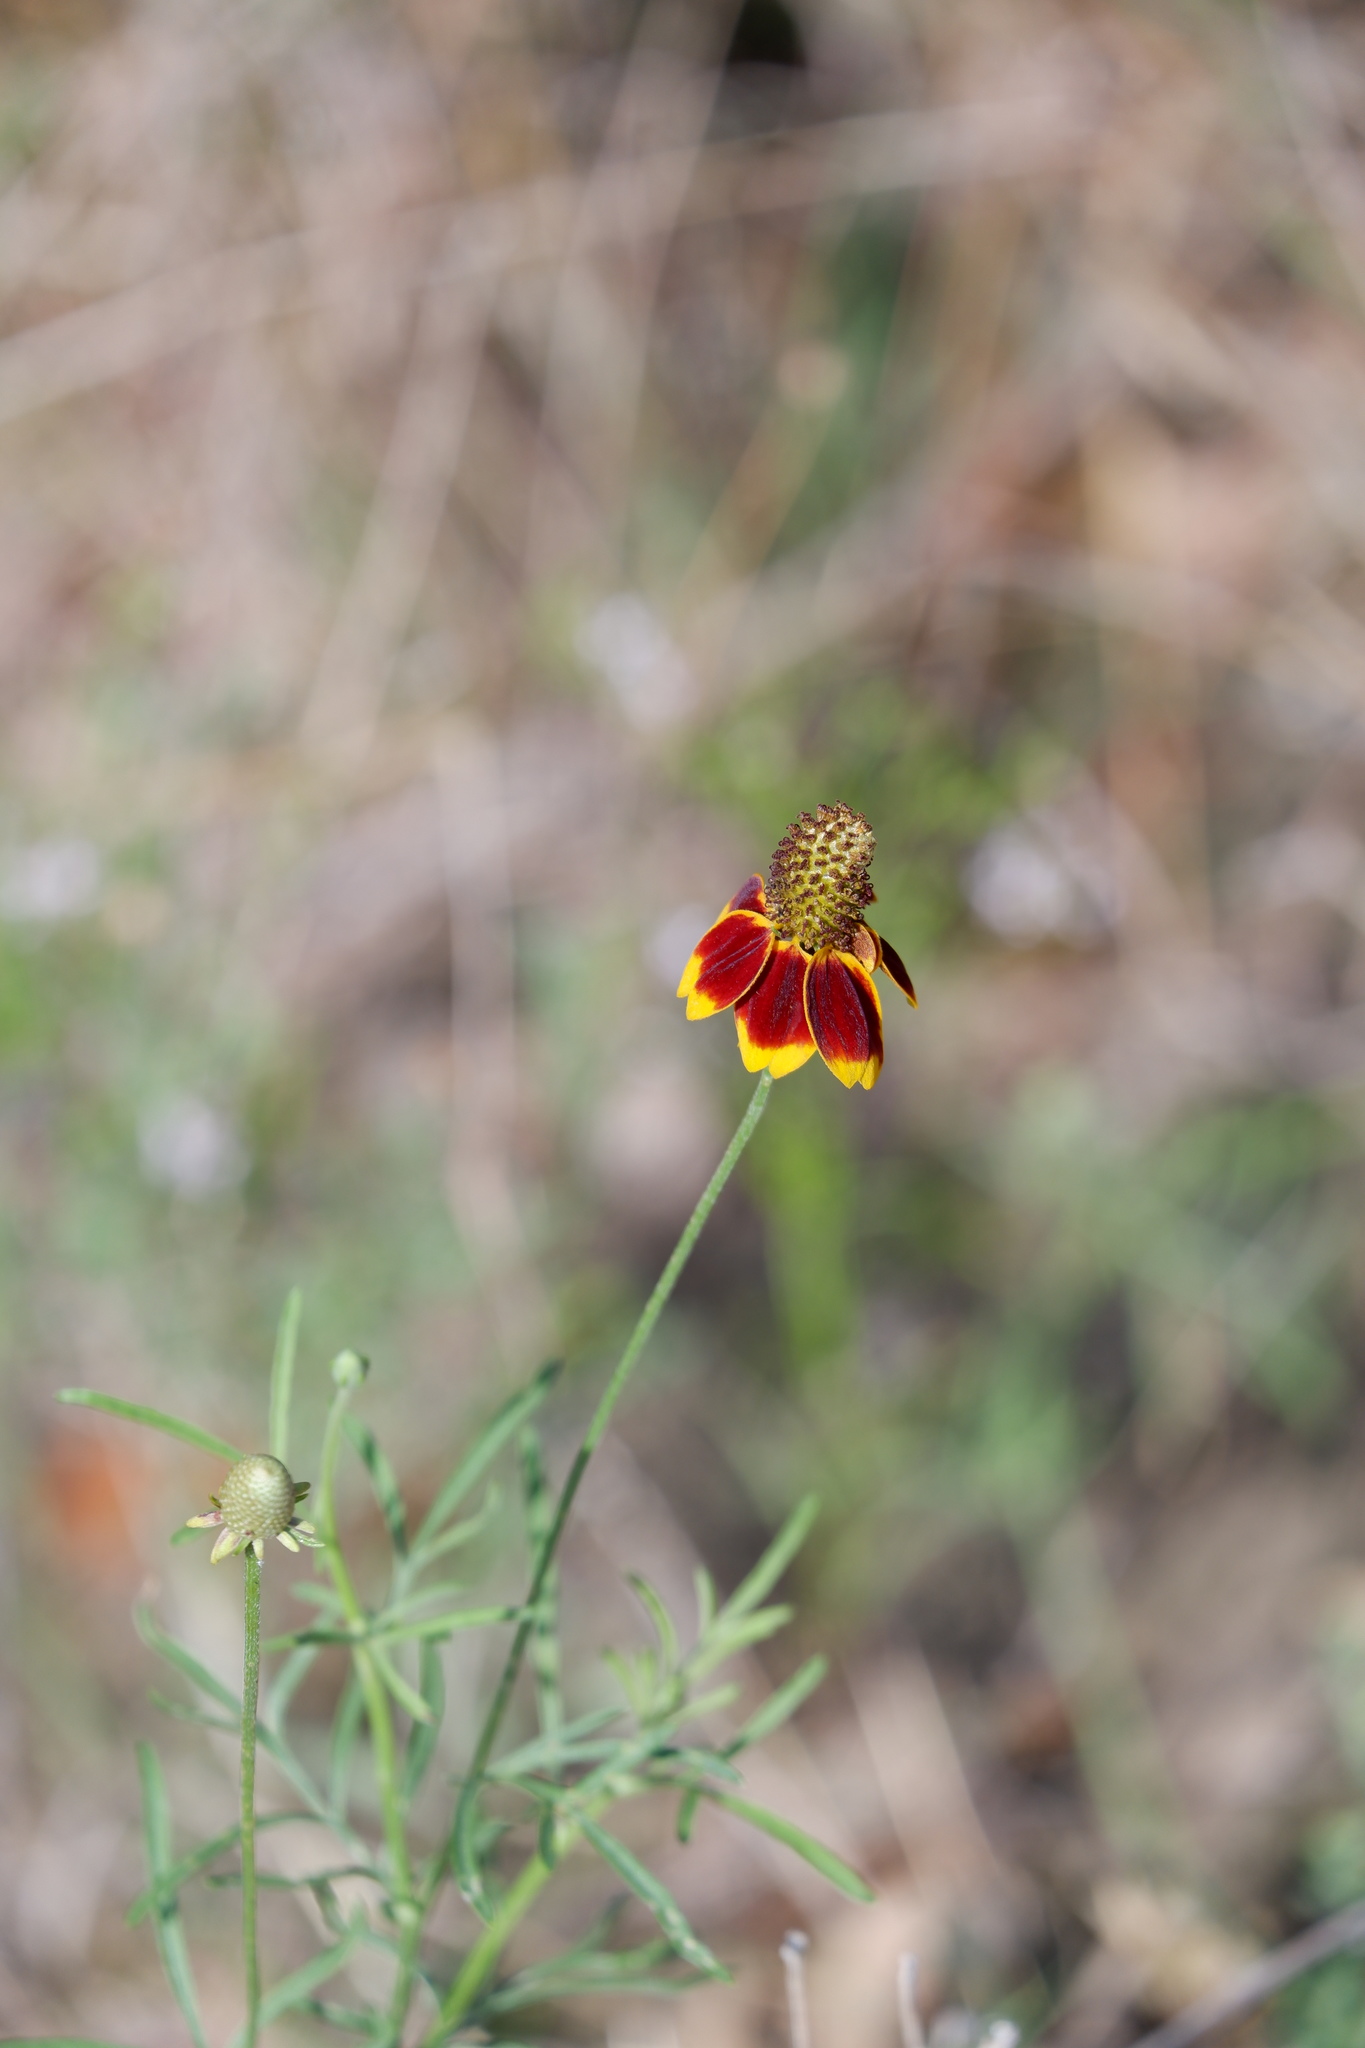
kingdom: Plantae
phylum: Tracheophyta
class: Magnoliopsida
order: Asterales
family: Asteraceae
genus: Ratibida
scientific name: Ratibida columnifera
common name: Prairie coneflower
